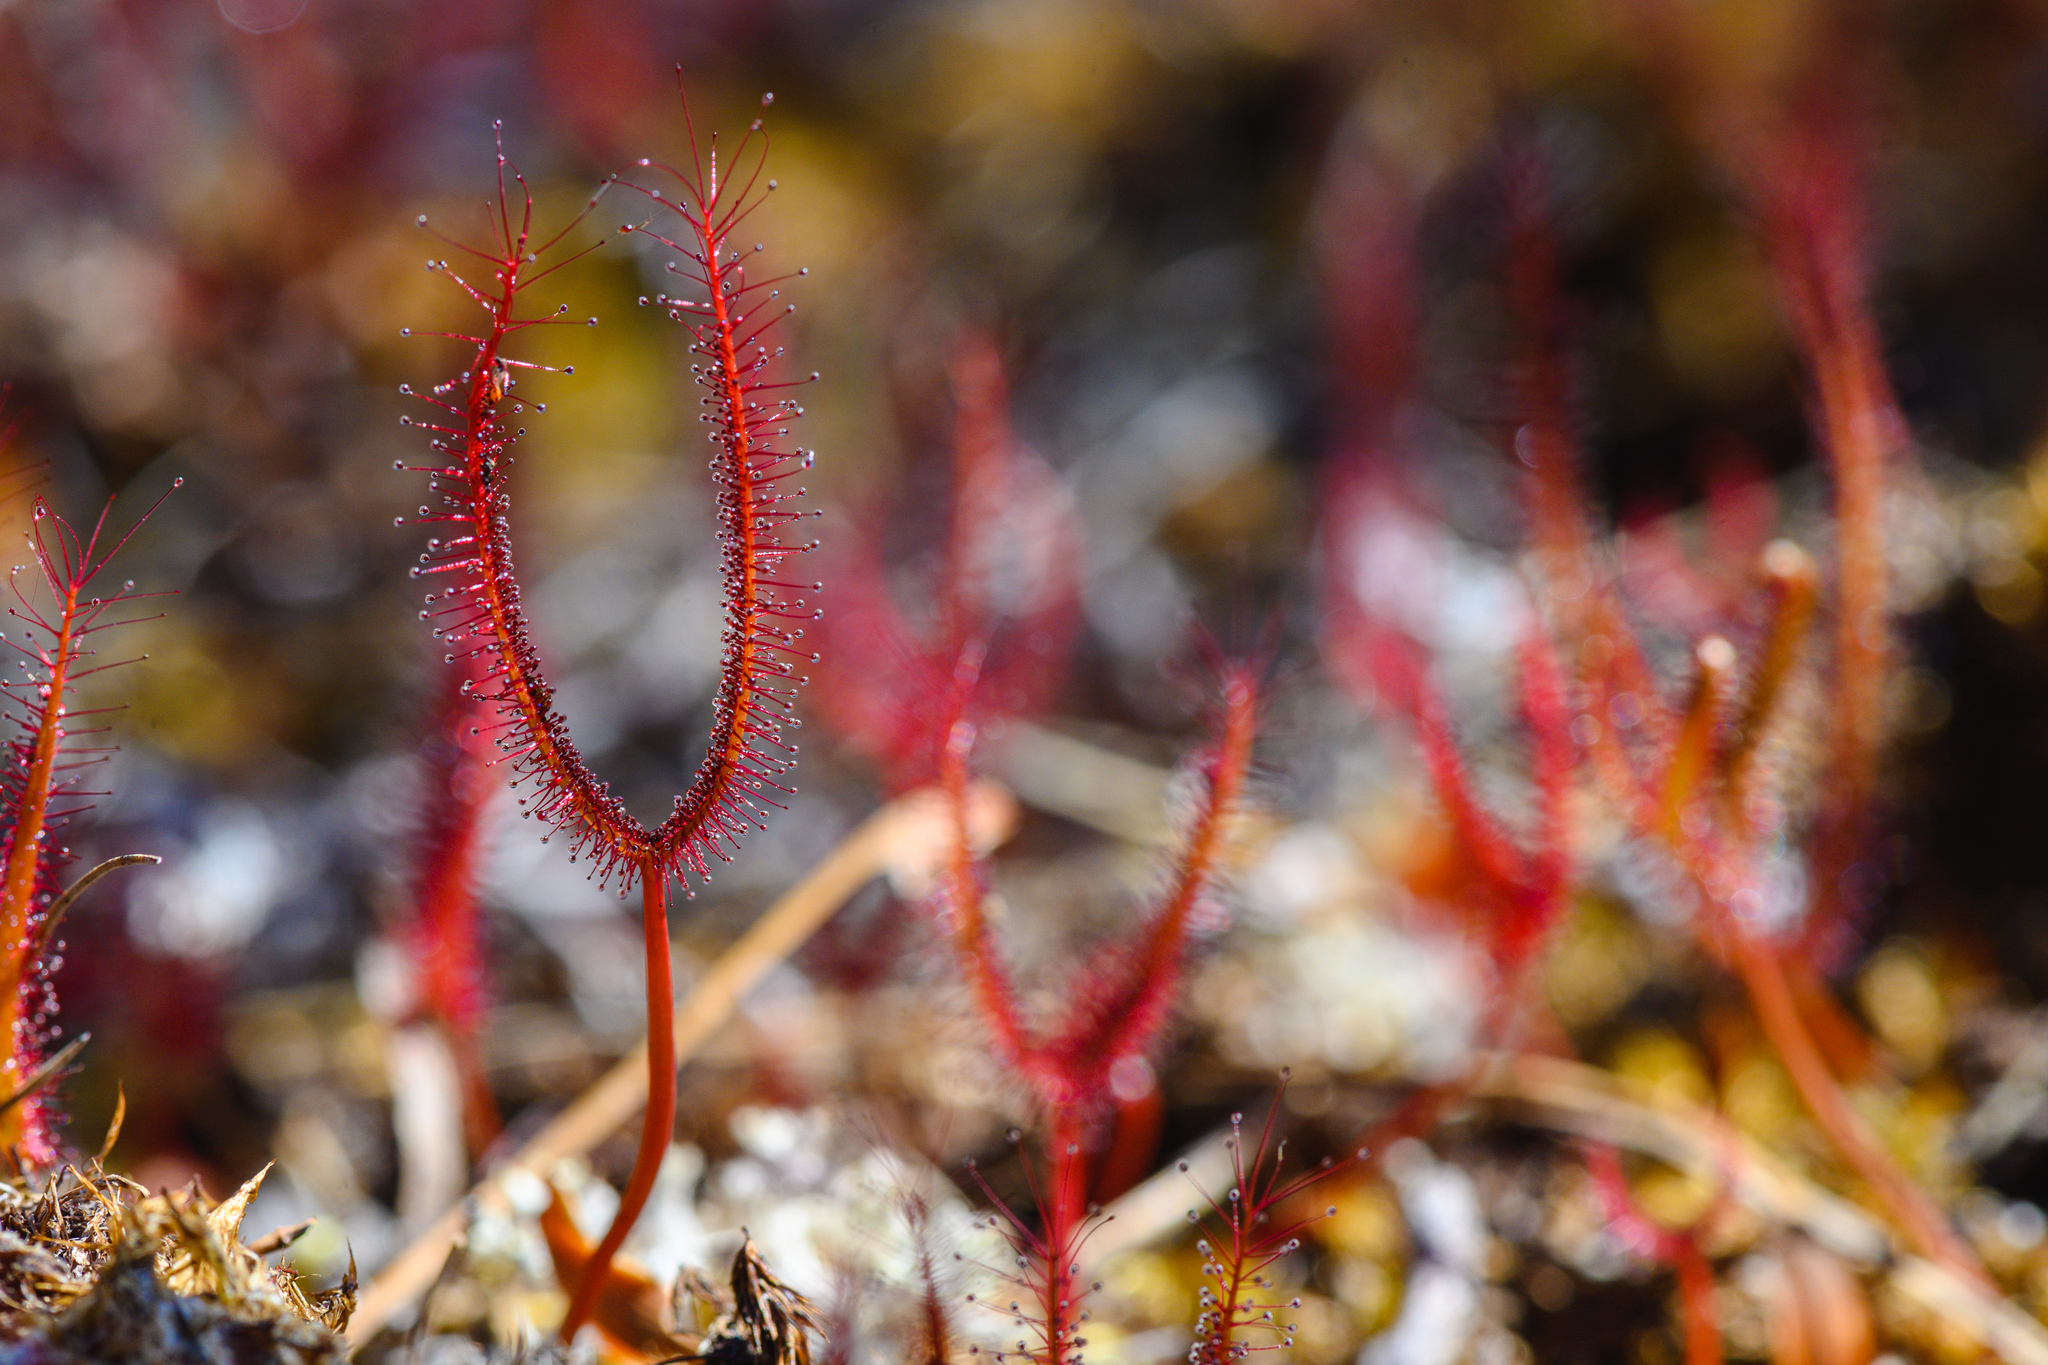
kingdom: Plantae
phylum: Tracheophyta
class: Magnoliopsida
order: Caryophyllales
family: Droseraceae
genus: Drosera
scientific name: Drosera binata
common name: Forked sundew
